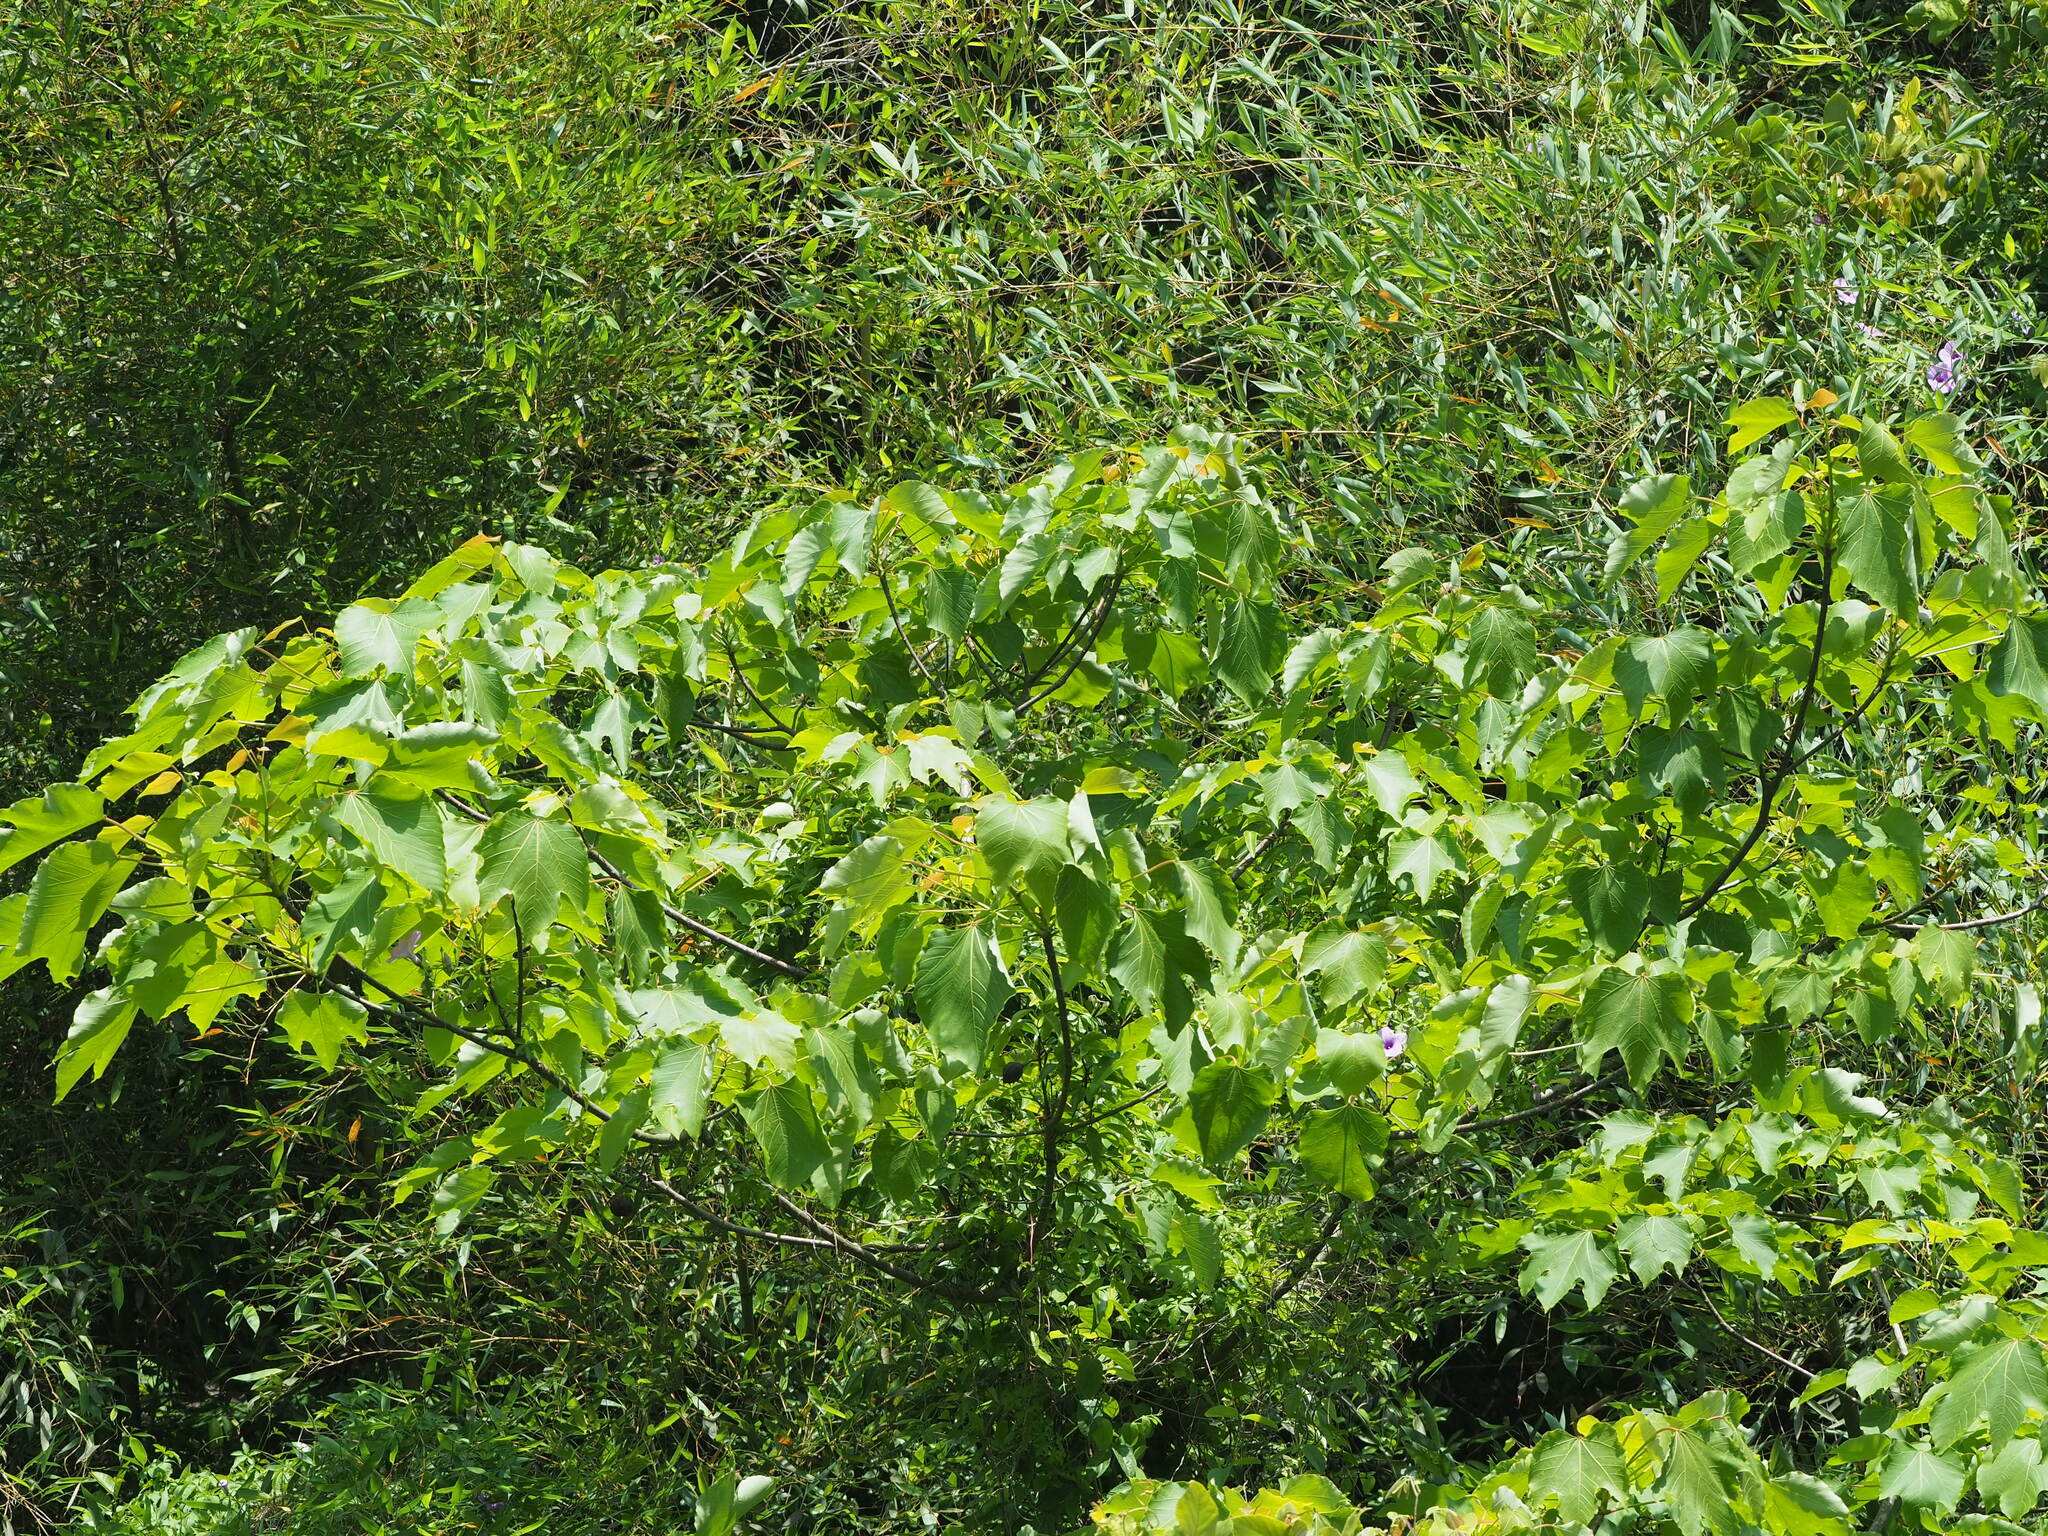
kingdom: Plantae
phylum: Tracheophyta
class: Magnoliopsida
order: Malpighiales
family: Euphorbiaceae
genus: Vernicia
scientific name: Vernicia montana
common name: Mu oil tree
